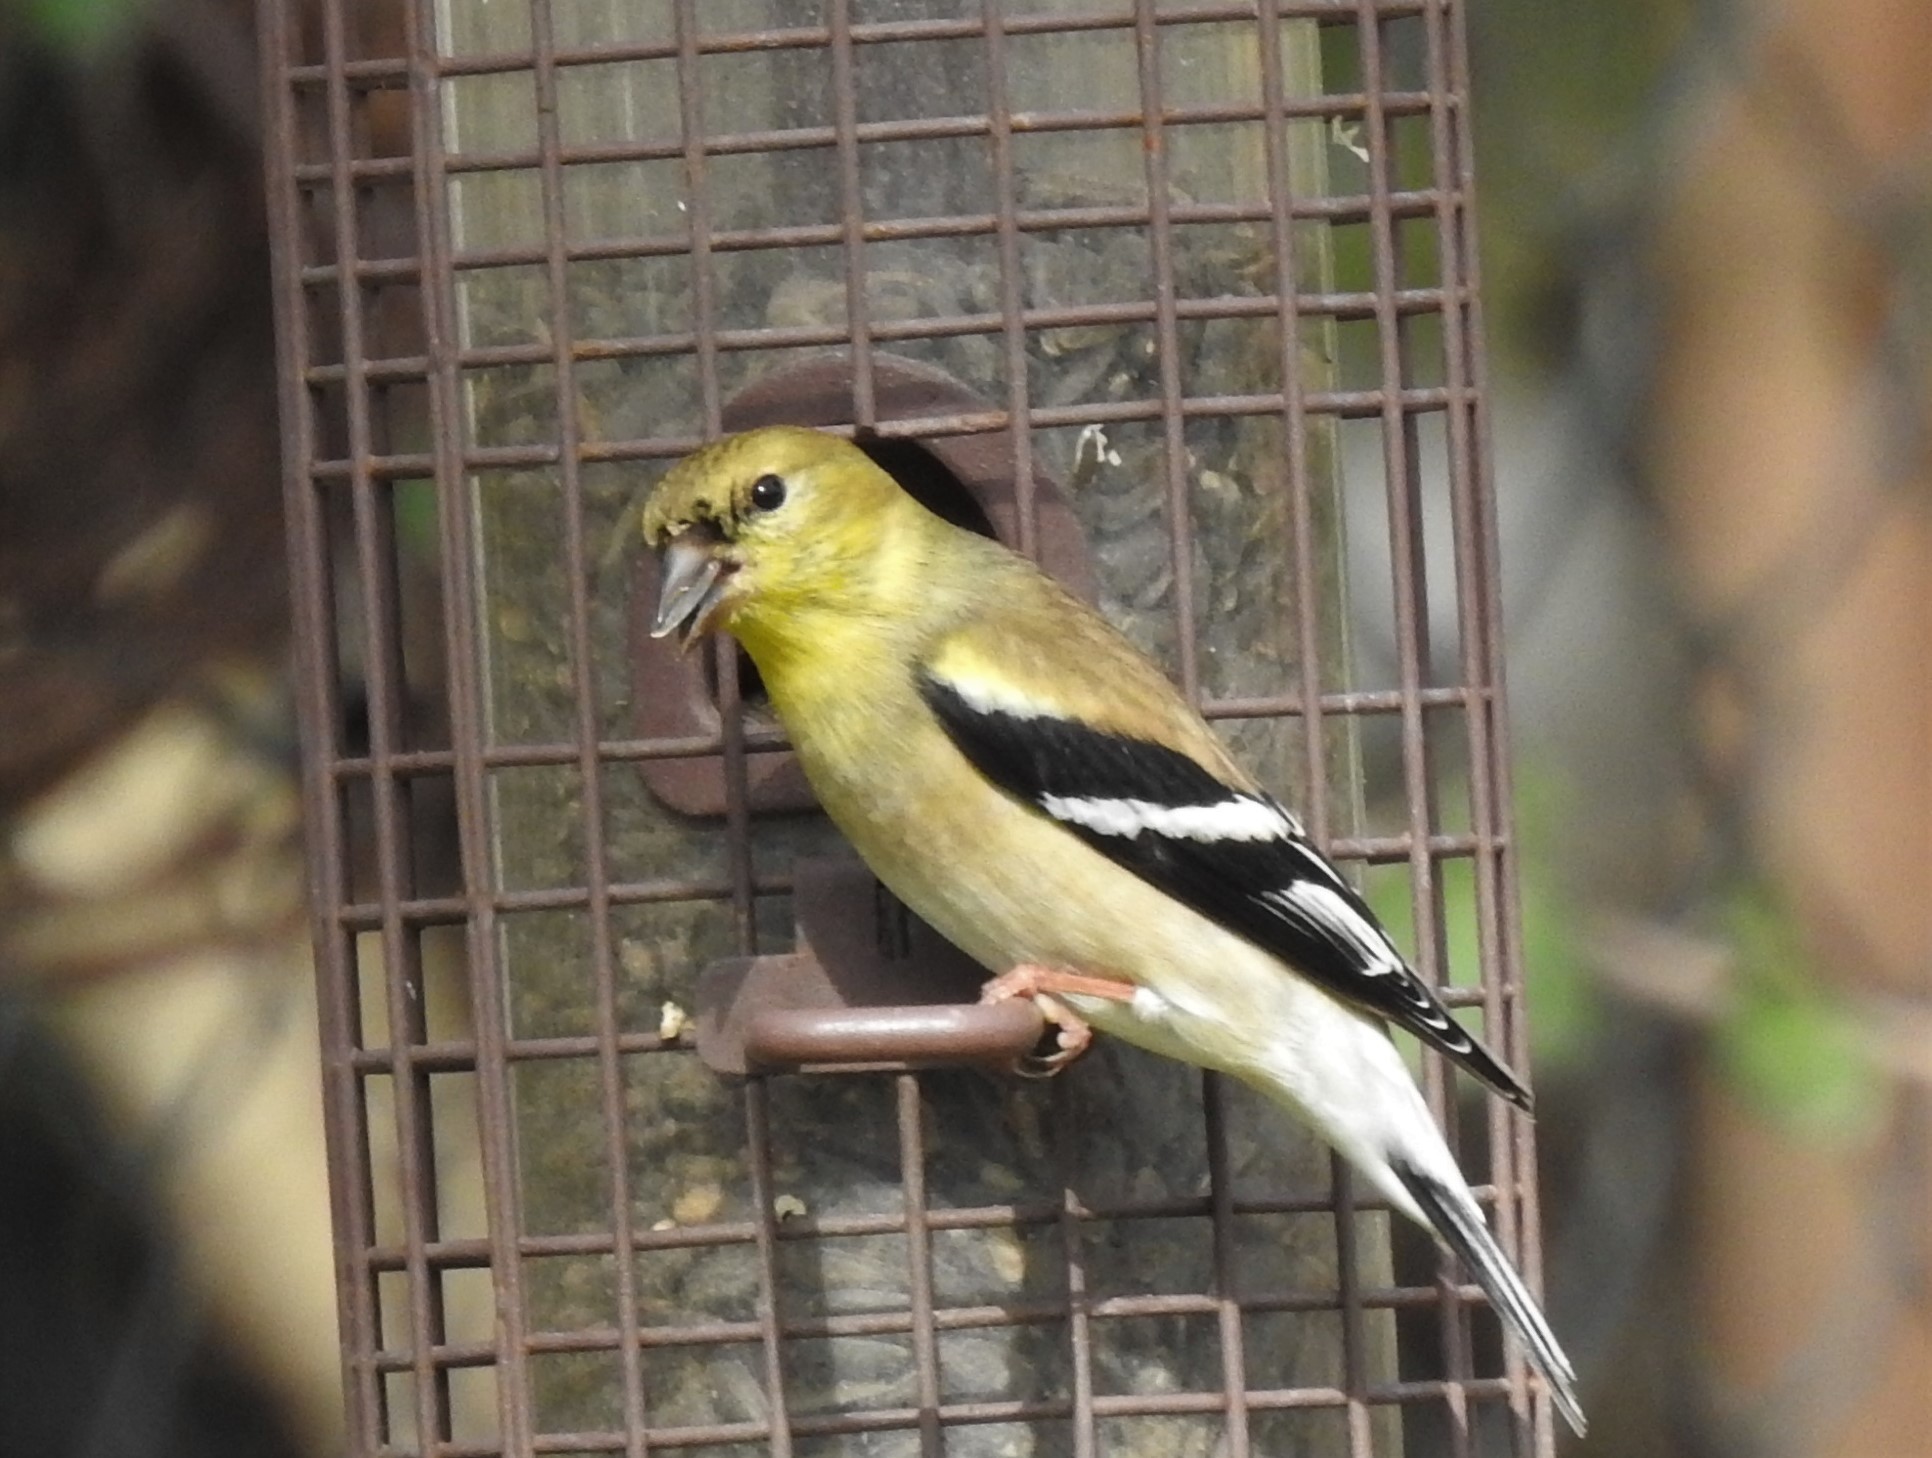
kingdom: Animalia
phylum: Chordata
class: Aves
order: Passeriformes
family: Fringillidae
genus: Spinus
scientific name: Spinus tristis
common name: American goldfinch
